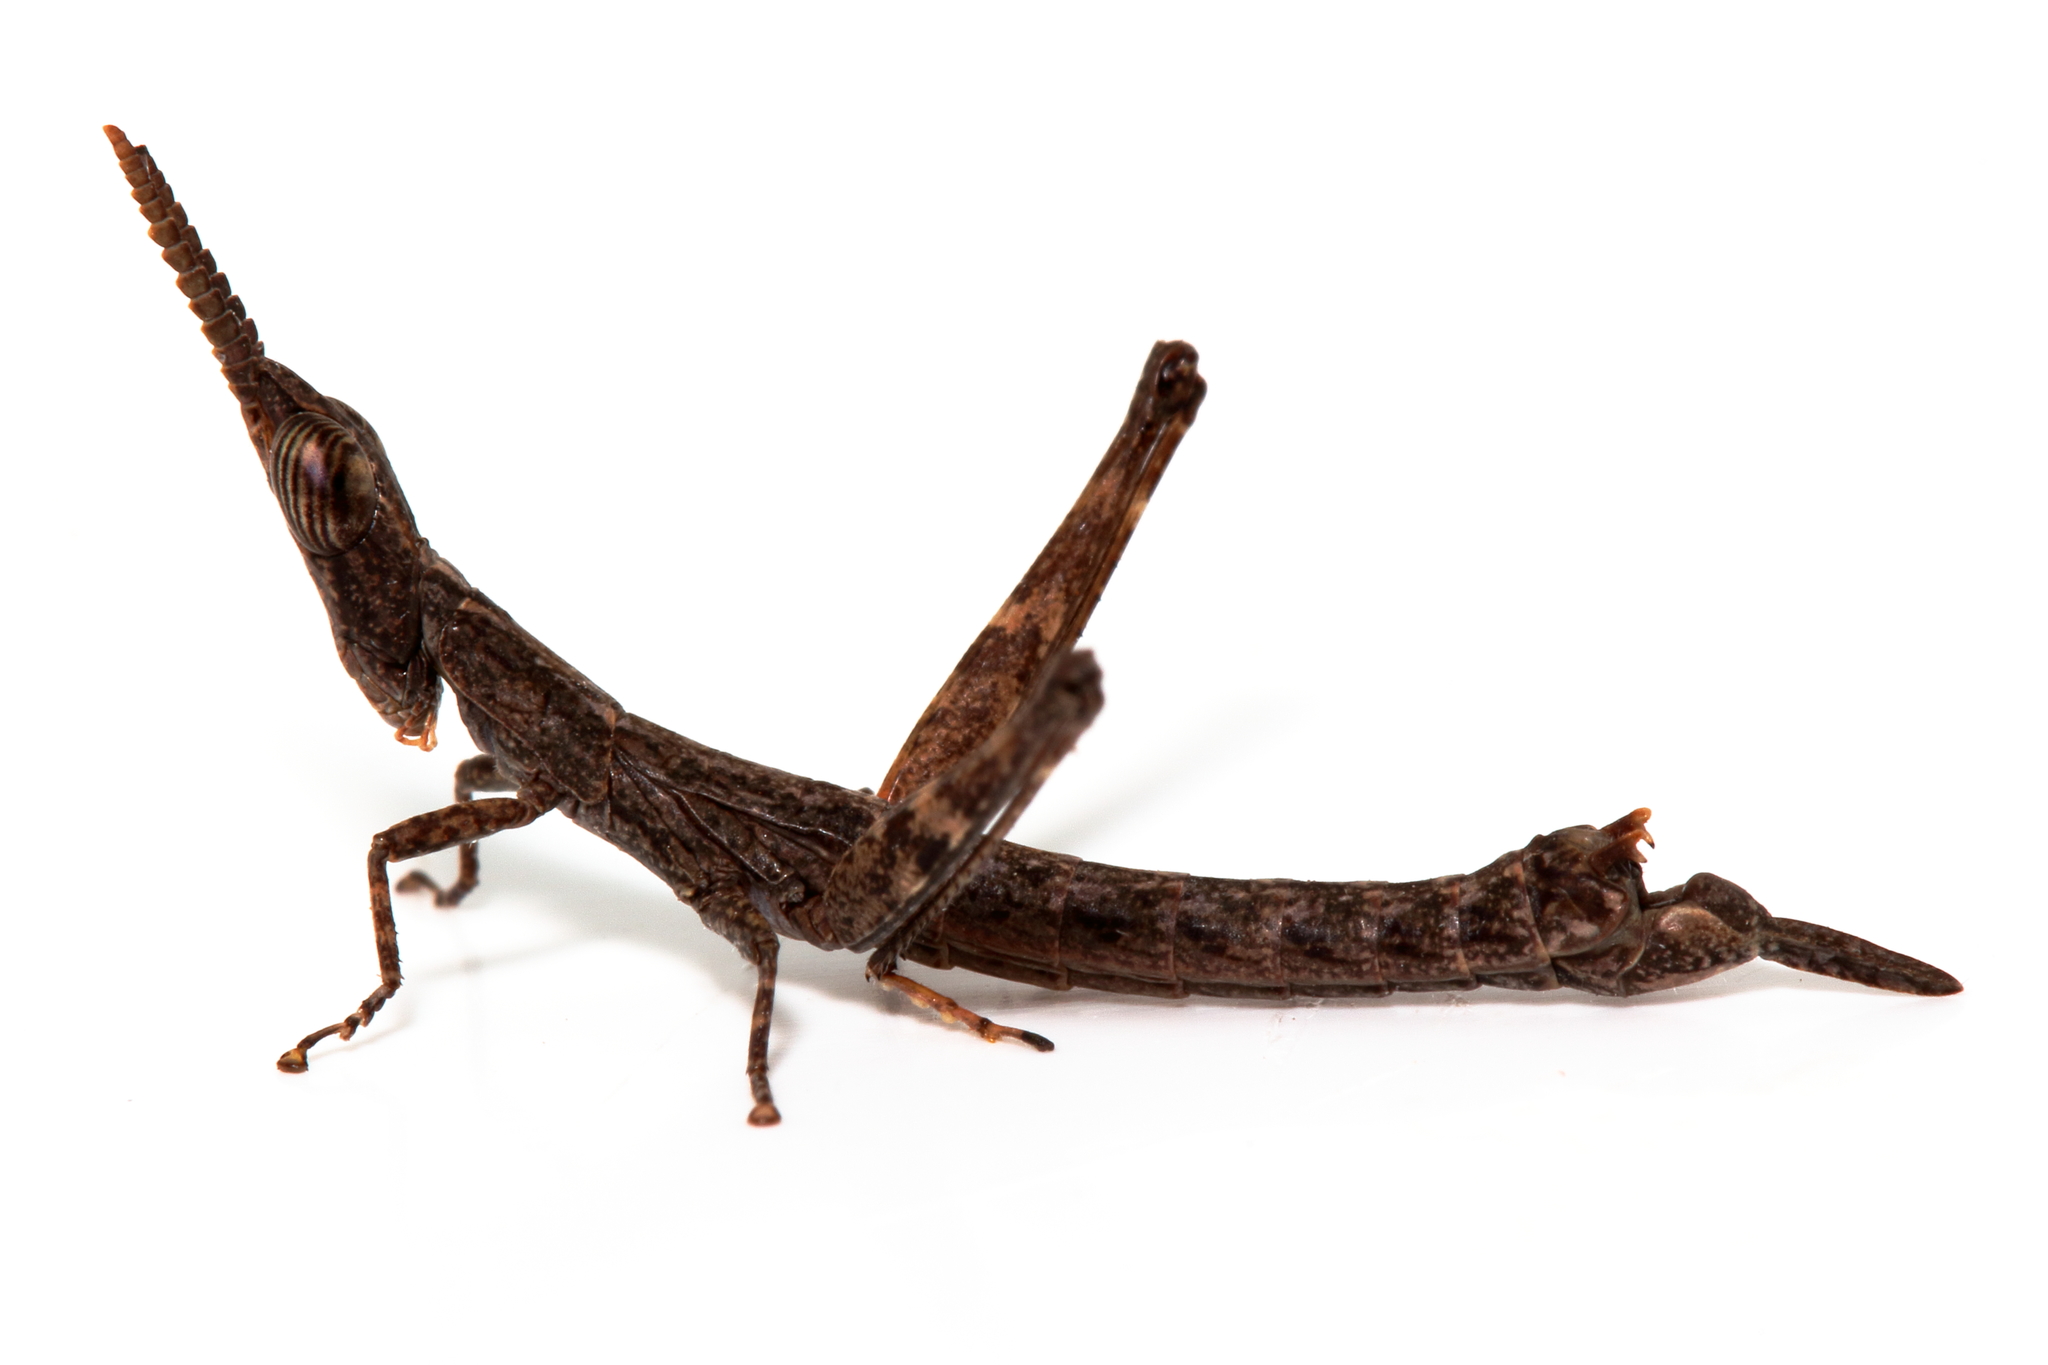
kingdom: Animalia
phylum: Arthropoda
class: Insecta
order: Orthoptera
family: Morabidae
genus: Prorifera
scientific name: Prorifera spanner
